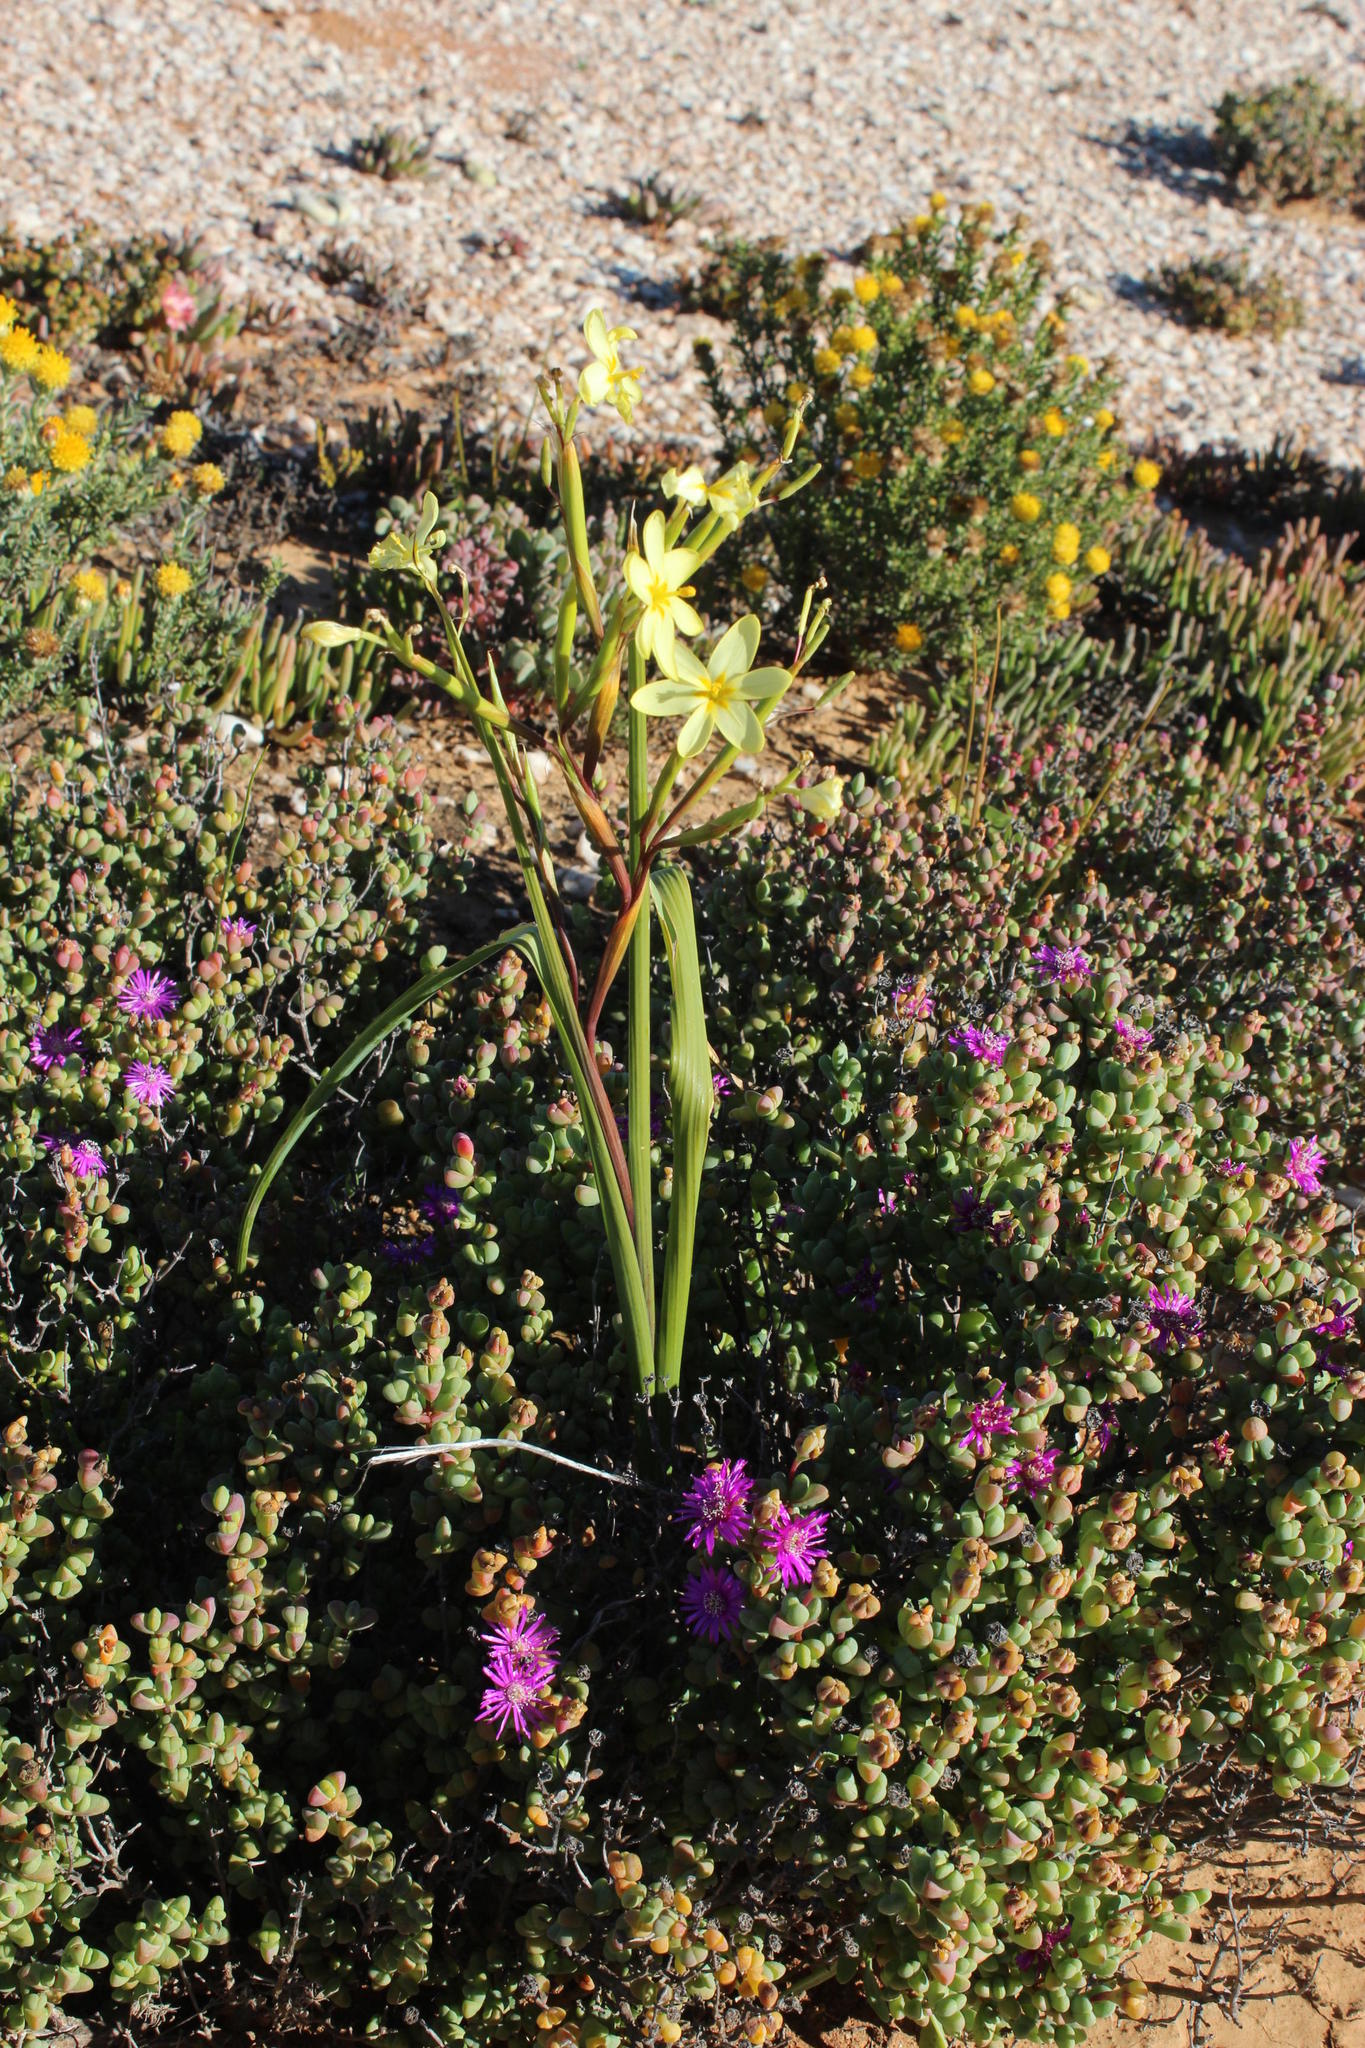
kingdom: Plantae
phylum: Tracheophyta
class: Liliopsida
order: Asparagales
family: Iridaceae
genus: Moraea
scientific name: Moraea miniata
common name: Two-leaf cape-tulip
